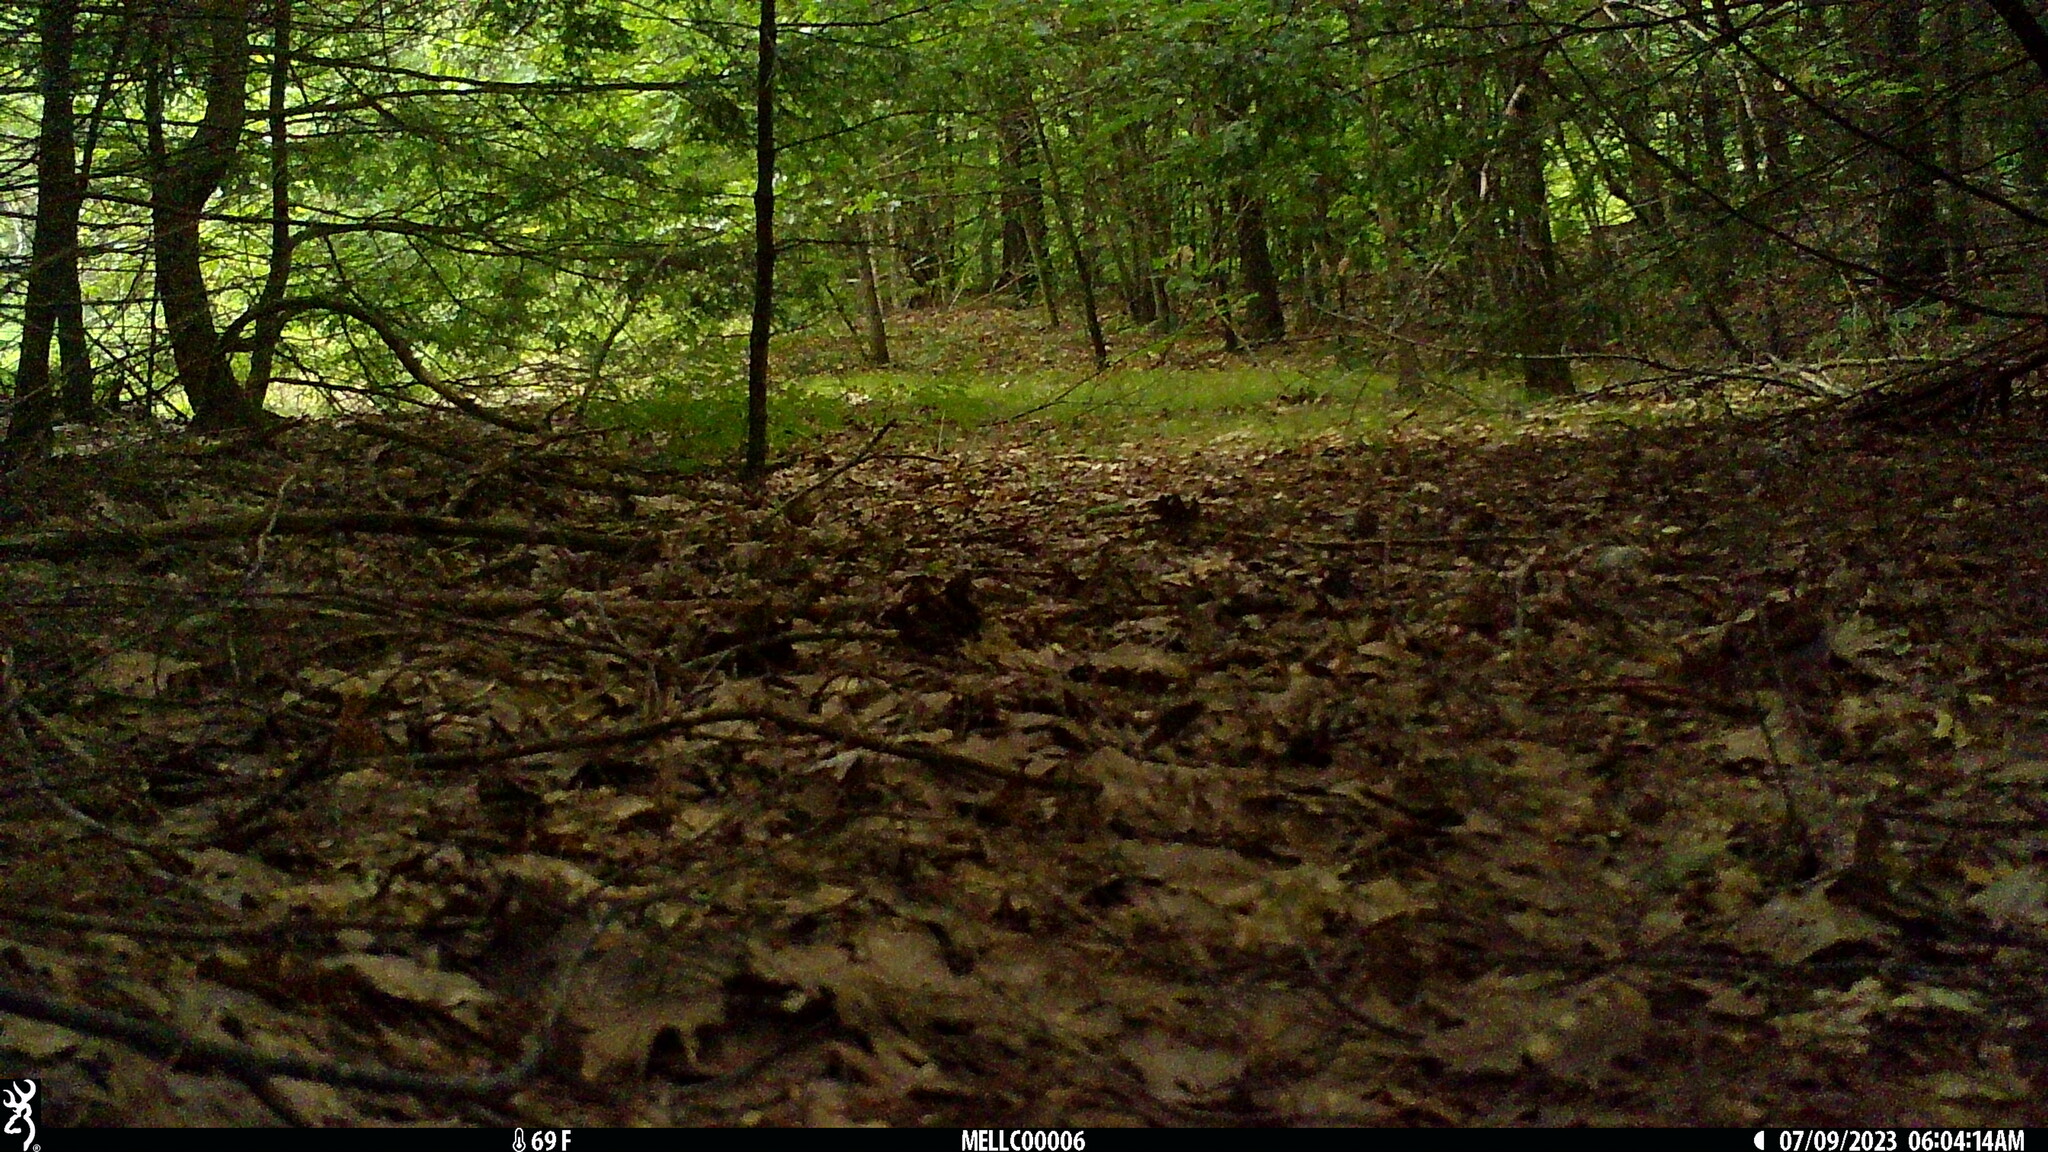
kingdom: Animalia
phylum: Chordata
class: Aves
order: Passeriformes
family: Turdidae
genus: Catharus
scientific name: Catharus fuscescens
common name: Veery
